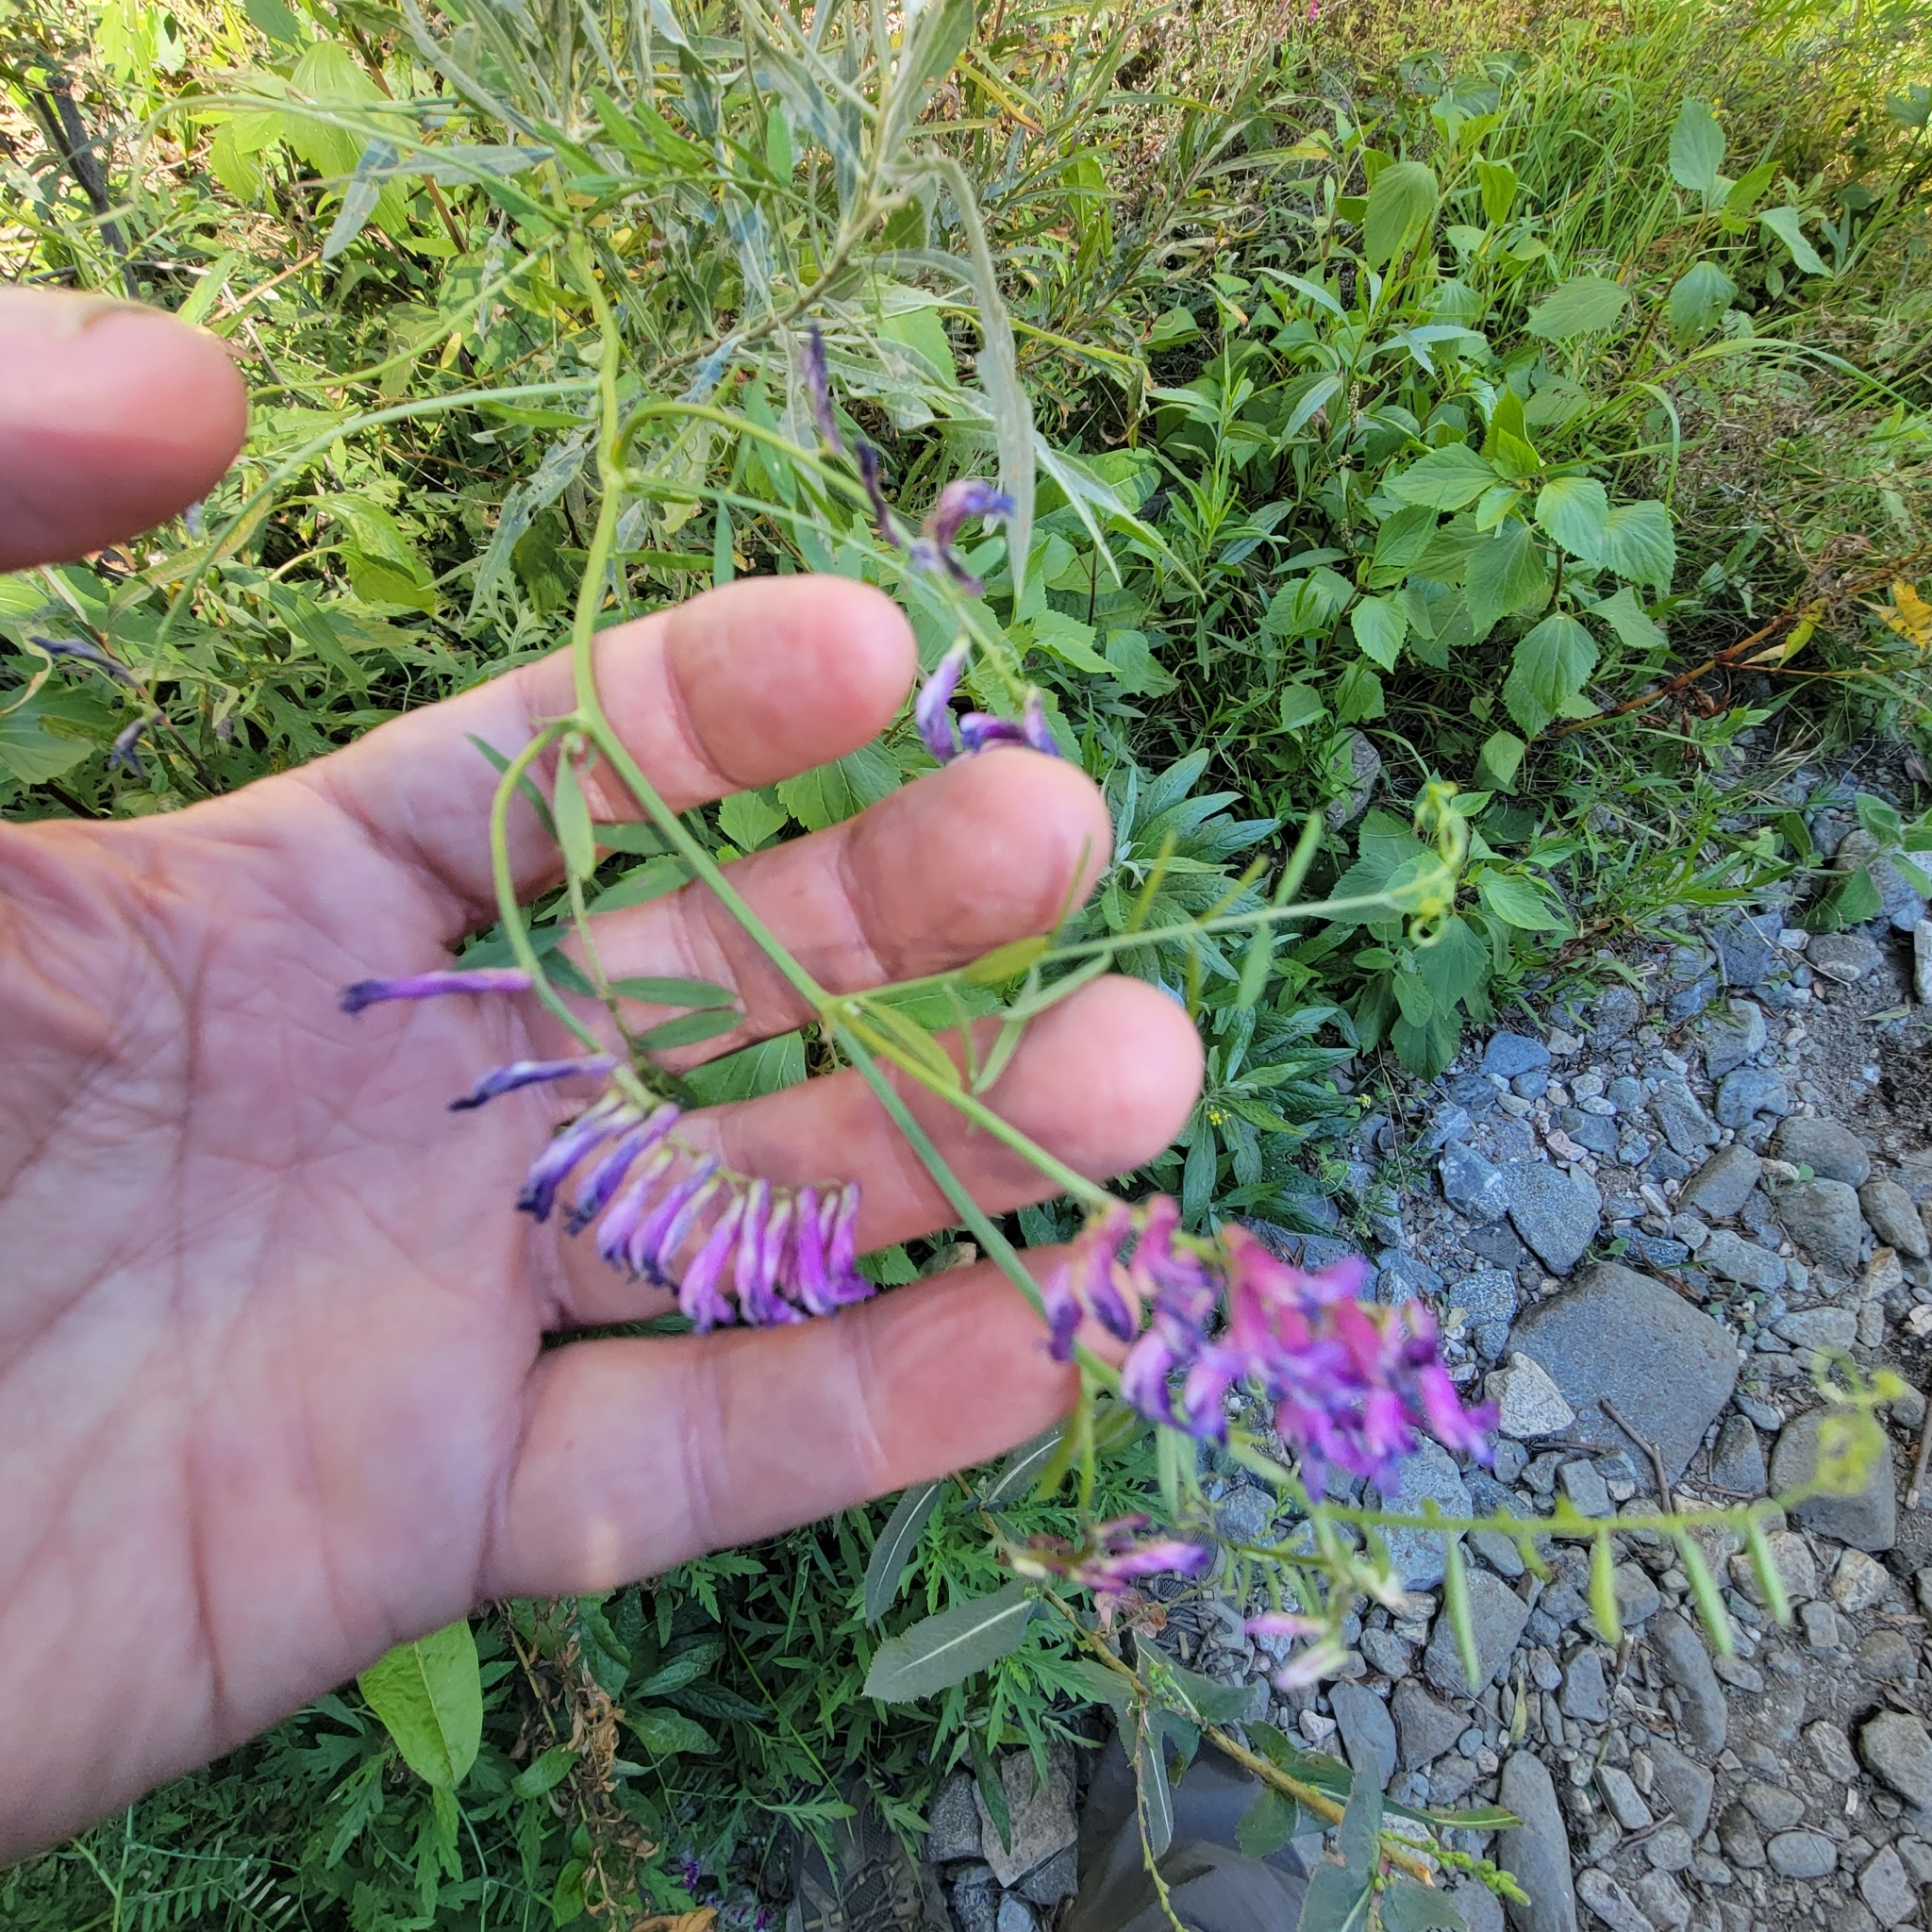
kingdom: Plantae
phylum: Tracheophyta
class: Magnoliopsida
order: Fabales
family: Fabaceae
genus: Vicia
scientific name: Vicia villosa
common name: Fodder vetch
